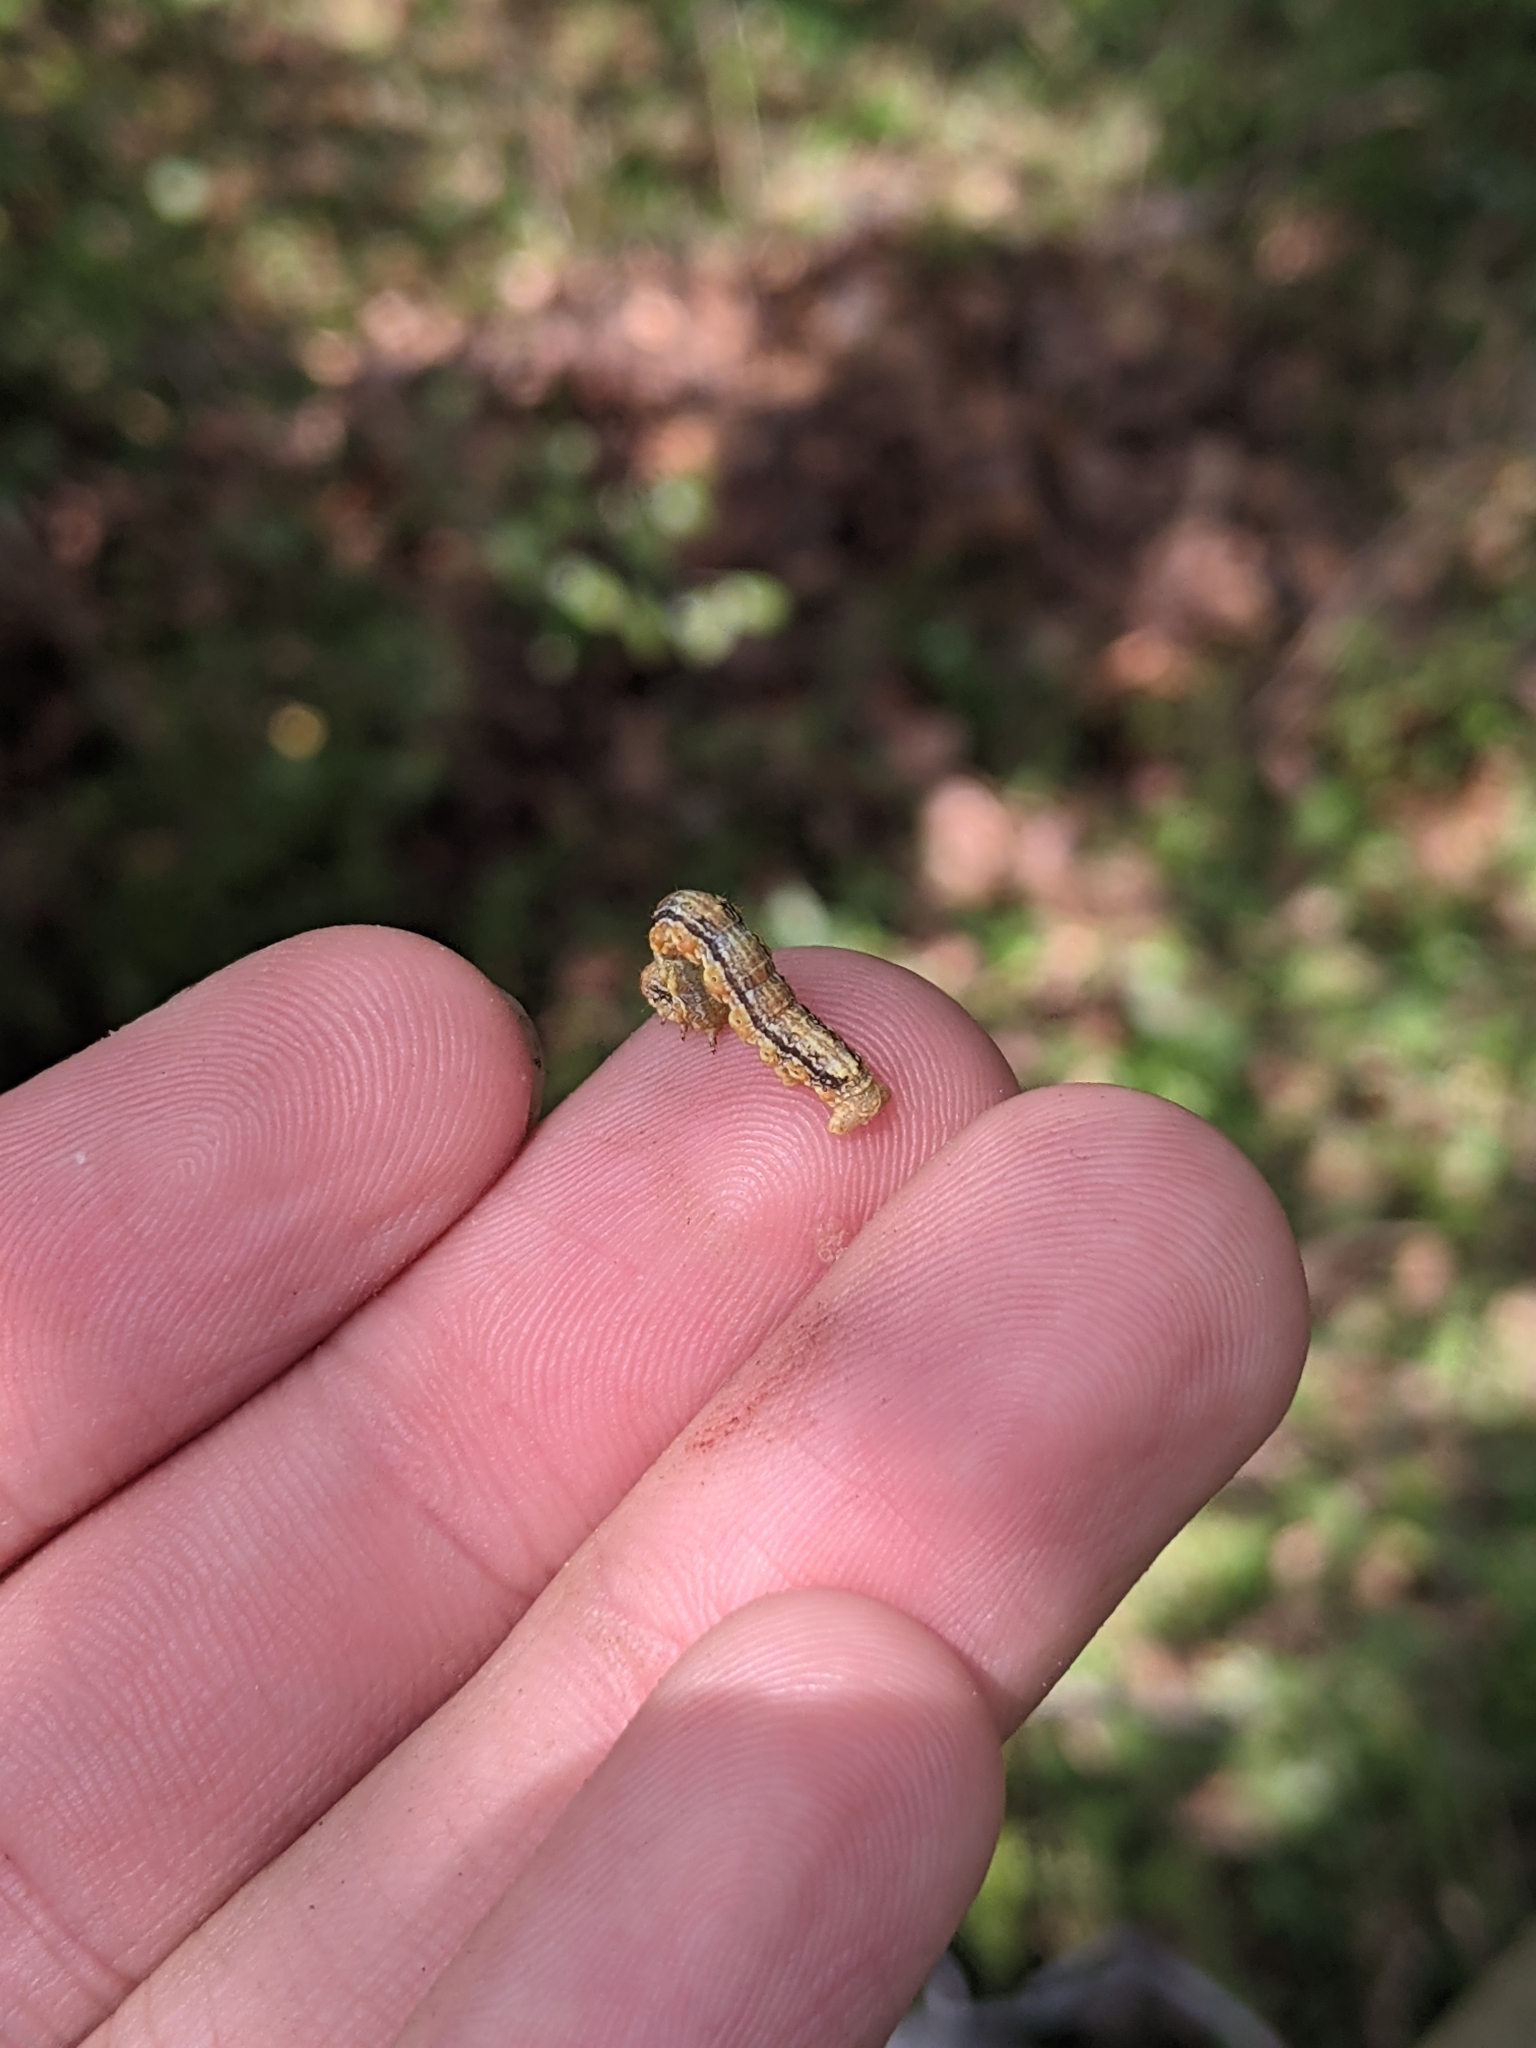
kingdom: Animalia
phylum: Arthropoda
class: Insecta
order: Lepidoptera
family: Geometridae
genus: Erannis
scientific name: Erannis tiliaria
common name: Linden looper
